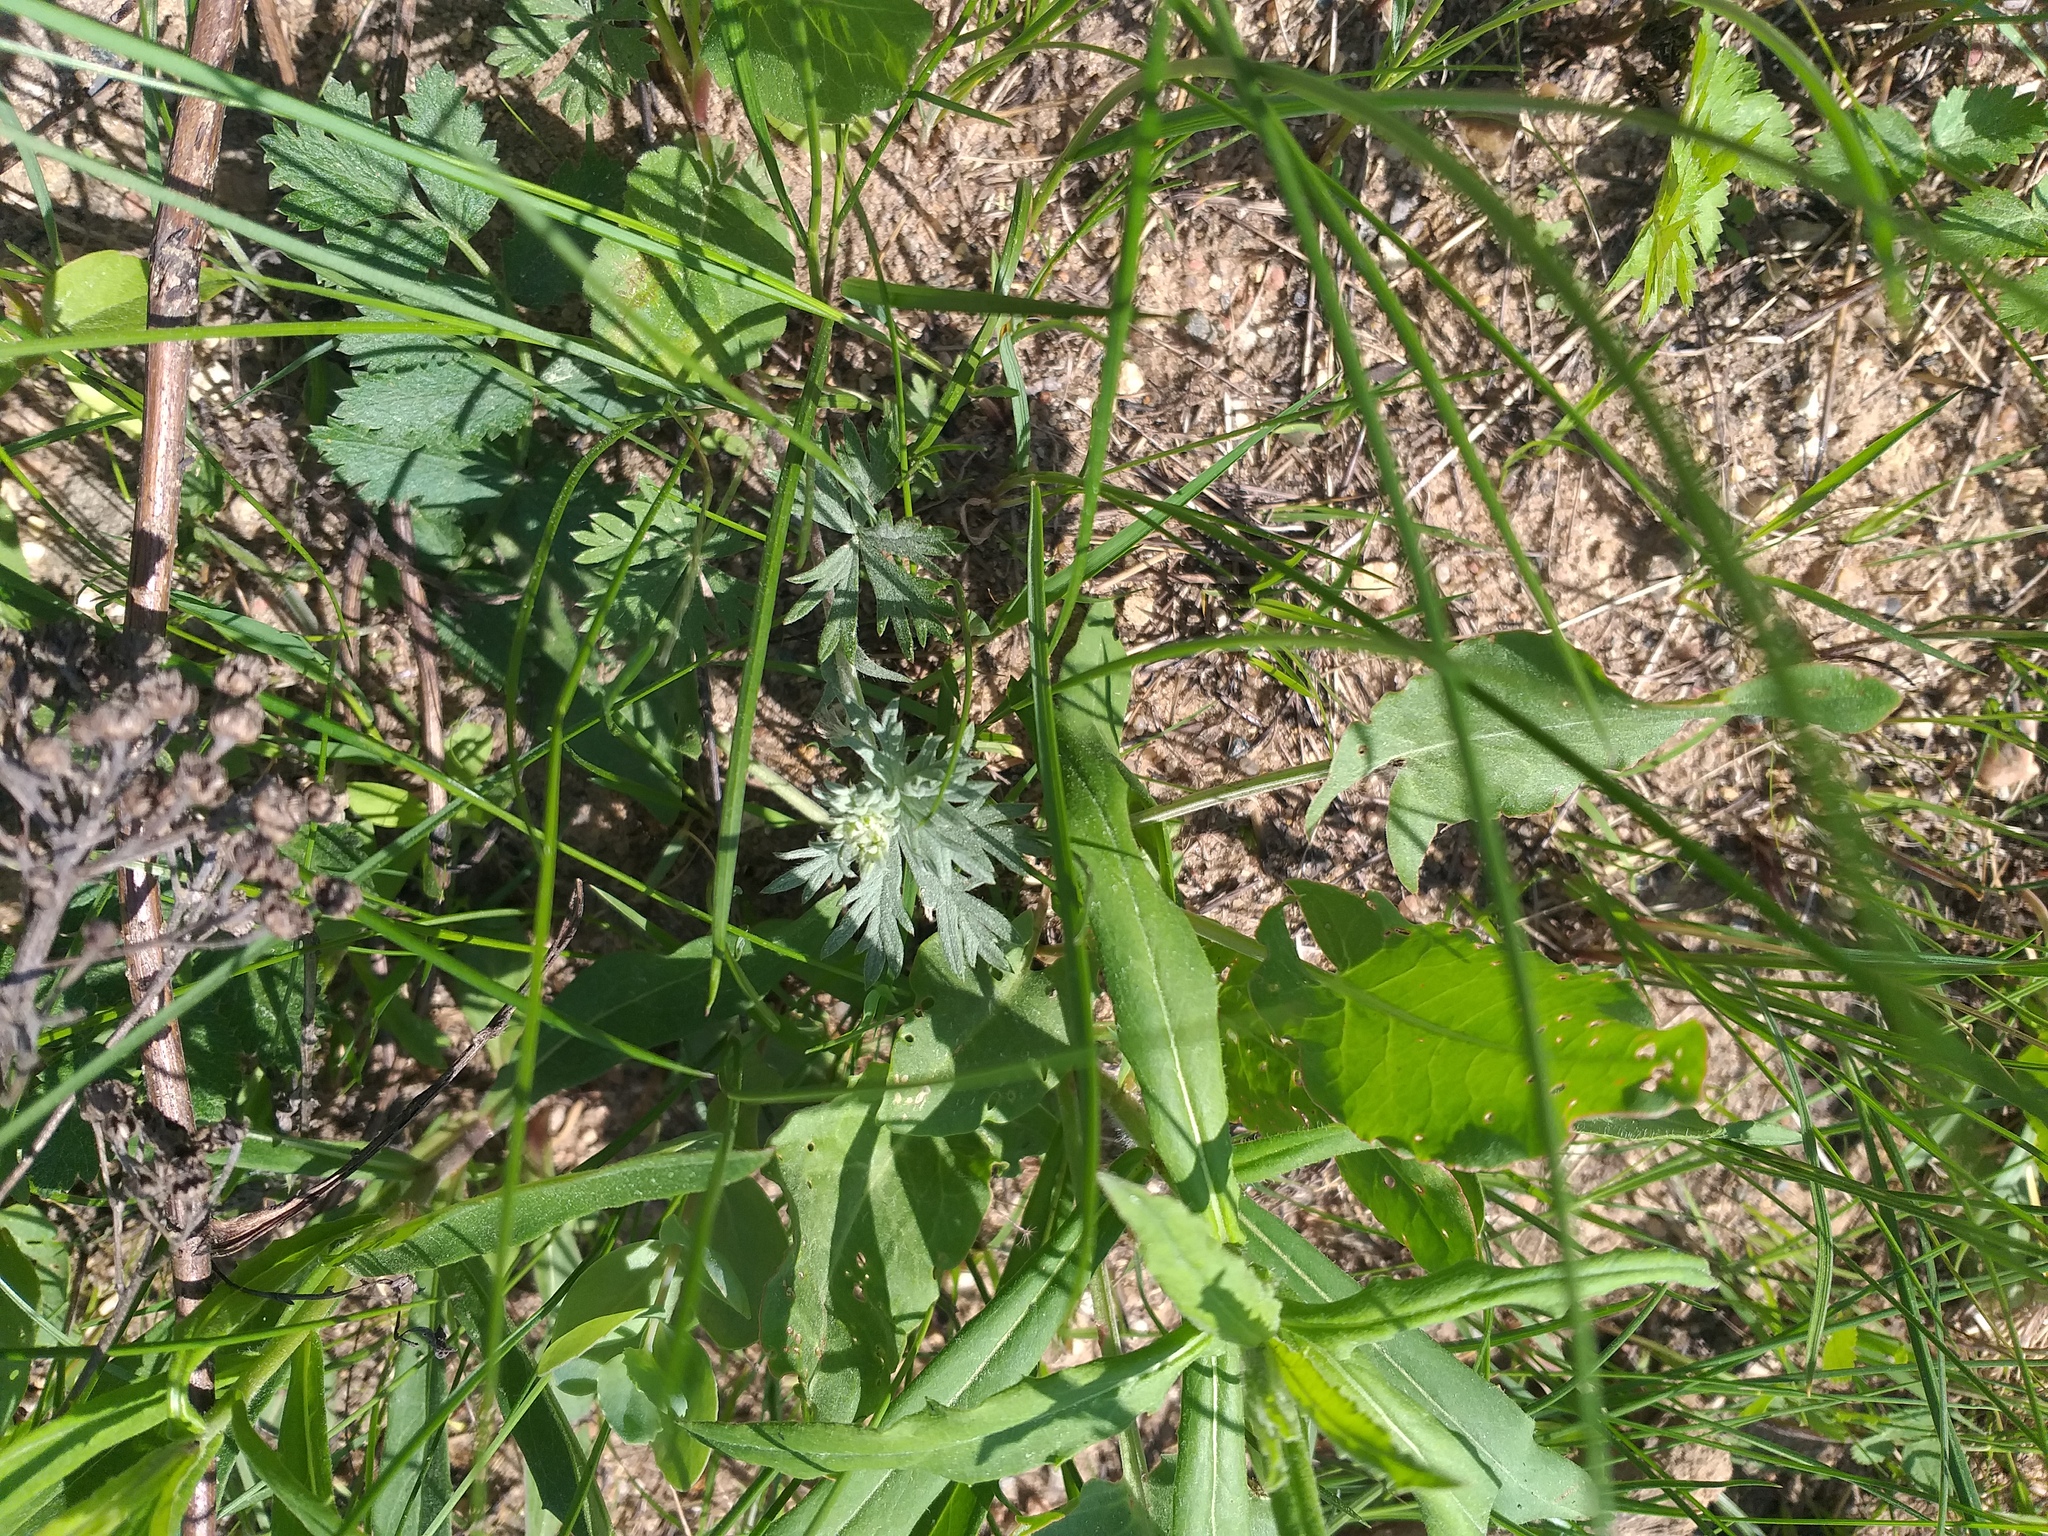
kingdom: Plantae
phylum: Tracheophyta
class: Magnoliopsida
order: Rosales
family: Rosaceae
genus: Potentilla
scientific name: Potentilla argentea
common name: Hoary cinquefoil
